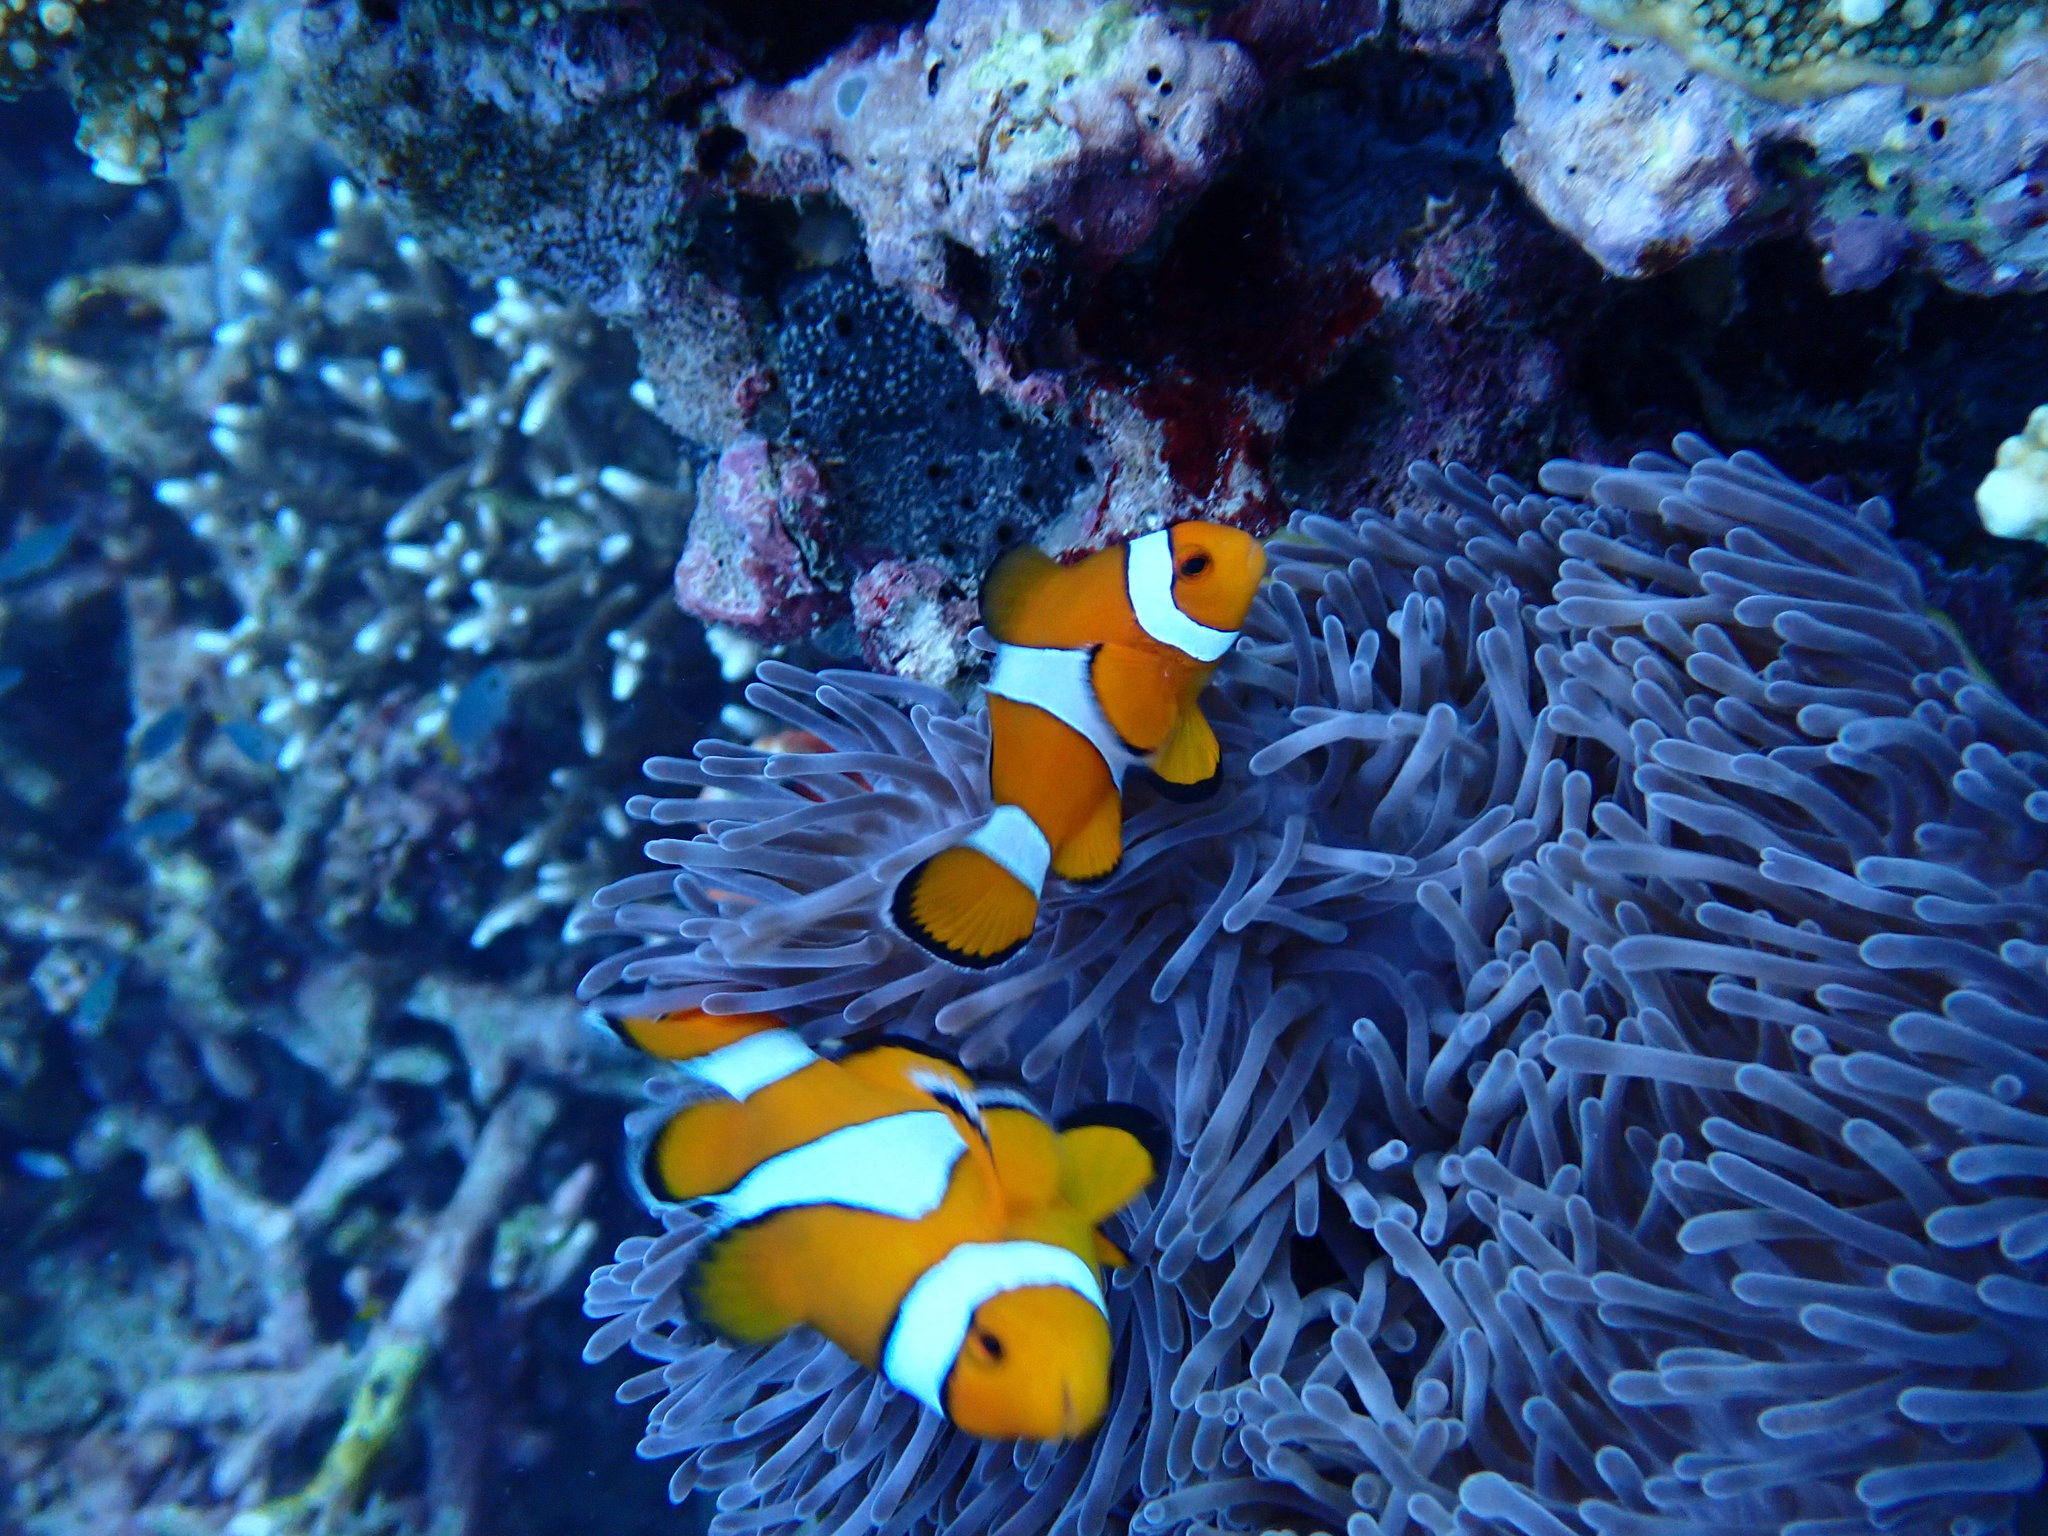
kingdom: Animalia
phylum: Chordata
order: Perciformes
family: Pomacentridae
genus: Amphiprion
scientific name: Amphiprion ocellaris
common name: Clown anemonefish
